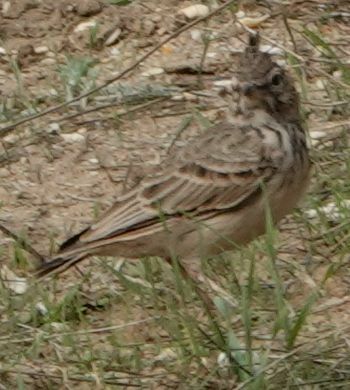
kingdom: Animalia
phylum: Chordata
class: Aves
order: Passeriformes
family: Alaudidae
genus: Galerida
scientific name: Galerida cristata
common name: Crested lark
